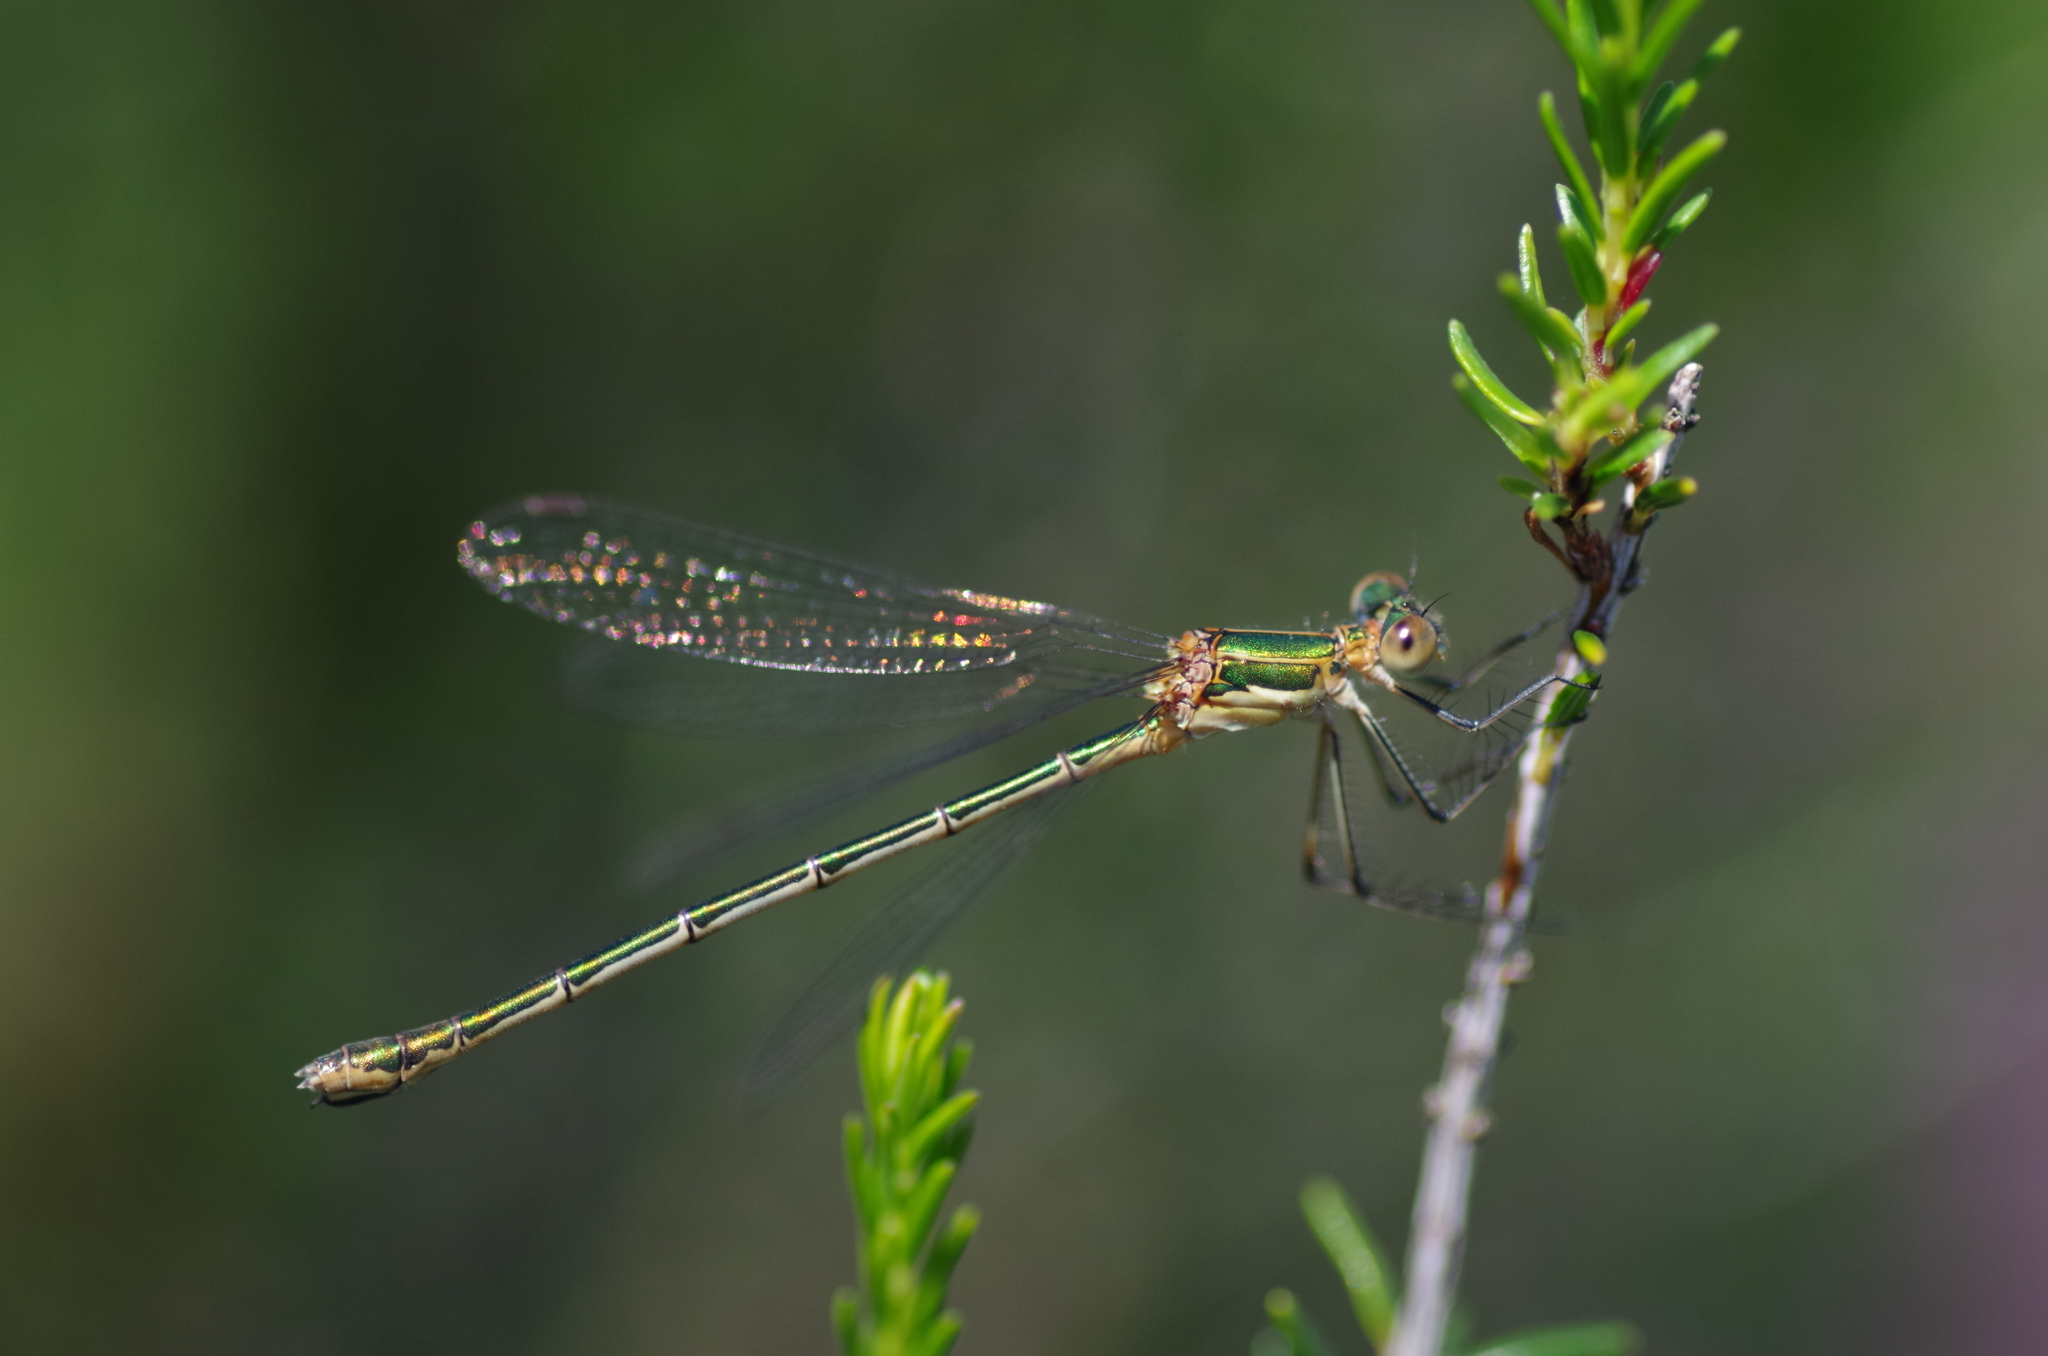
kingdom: Animalia
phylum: Arthropoda
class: Insecta
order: Odonata
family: Lestidae
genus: Lestes
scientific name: Lestes sponsa
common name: Common spreadwing
